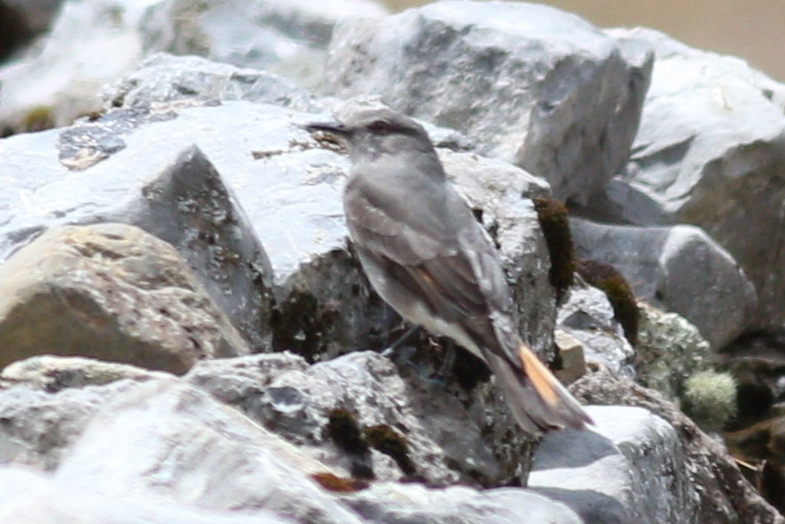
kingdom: Animalia
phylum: Chordata
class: Aves
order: Passeriformes
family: Tyrannidae
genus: Polioxolmis
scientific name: Polioxolmis rufipennis
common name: Rufous-webbed bush-tyrant
